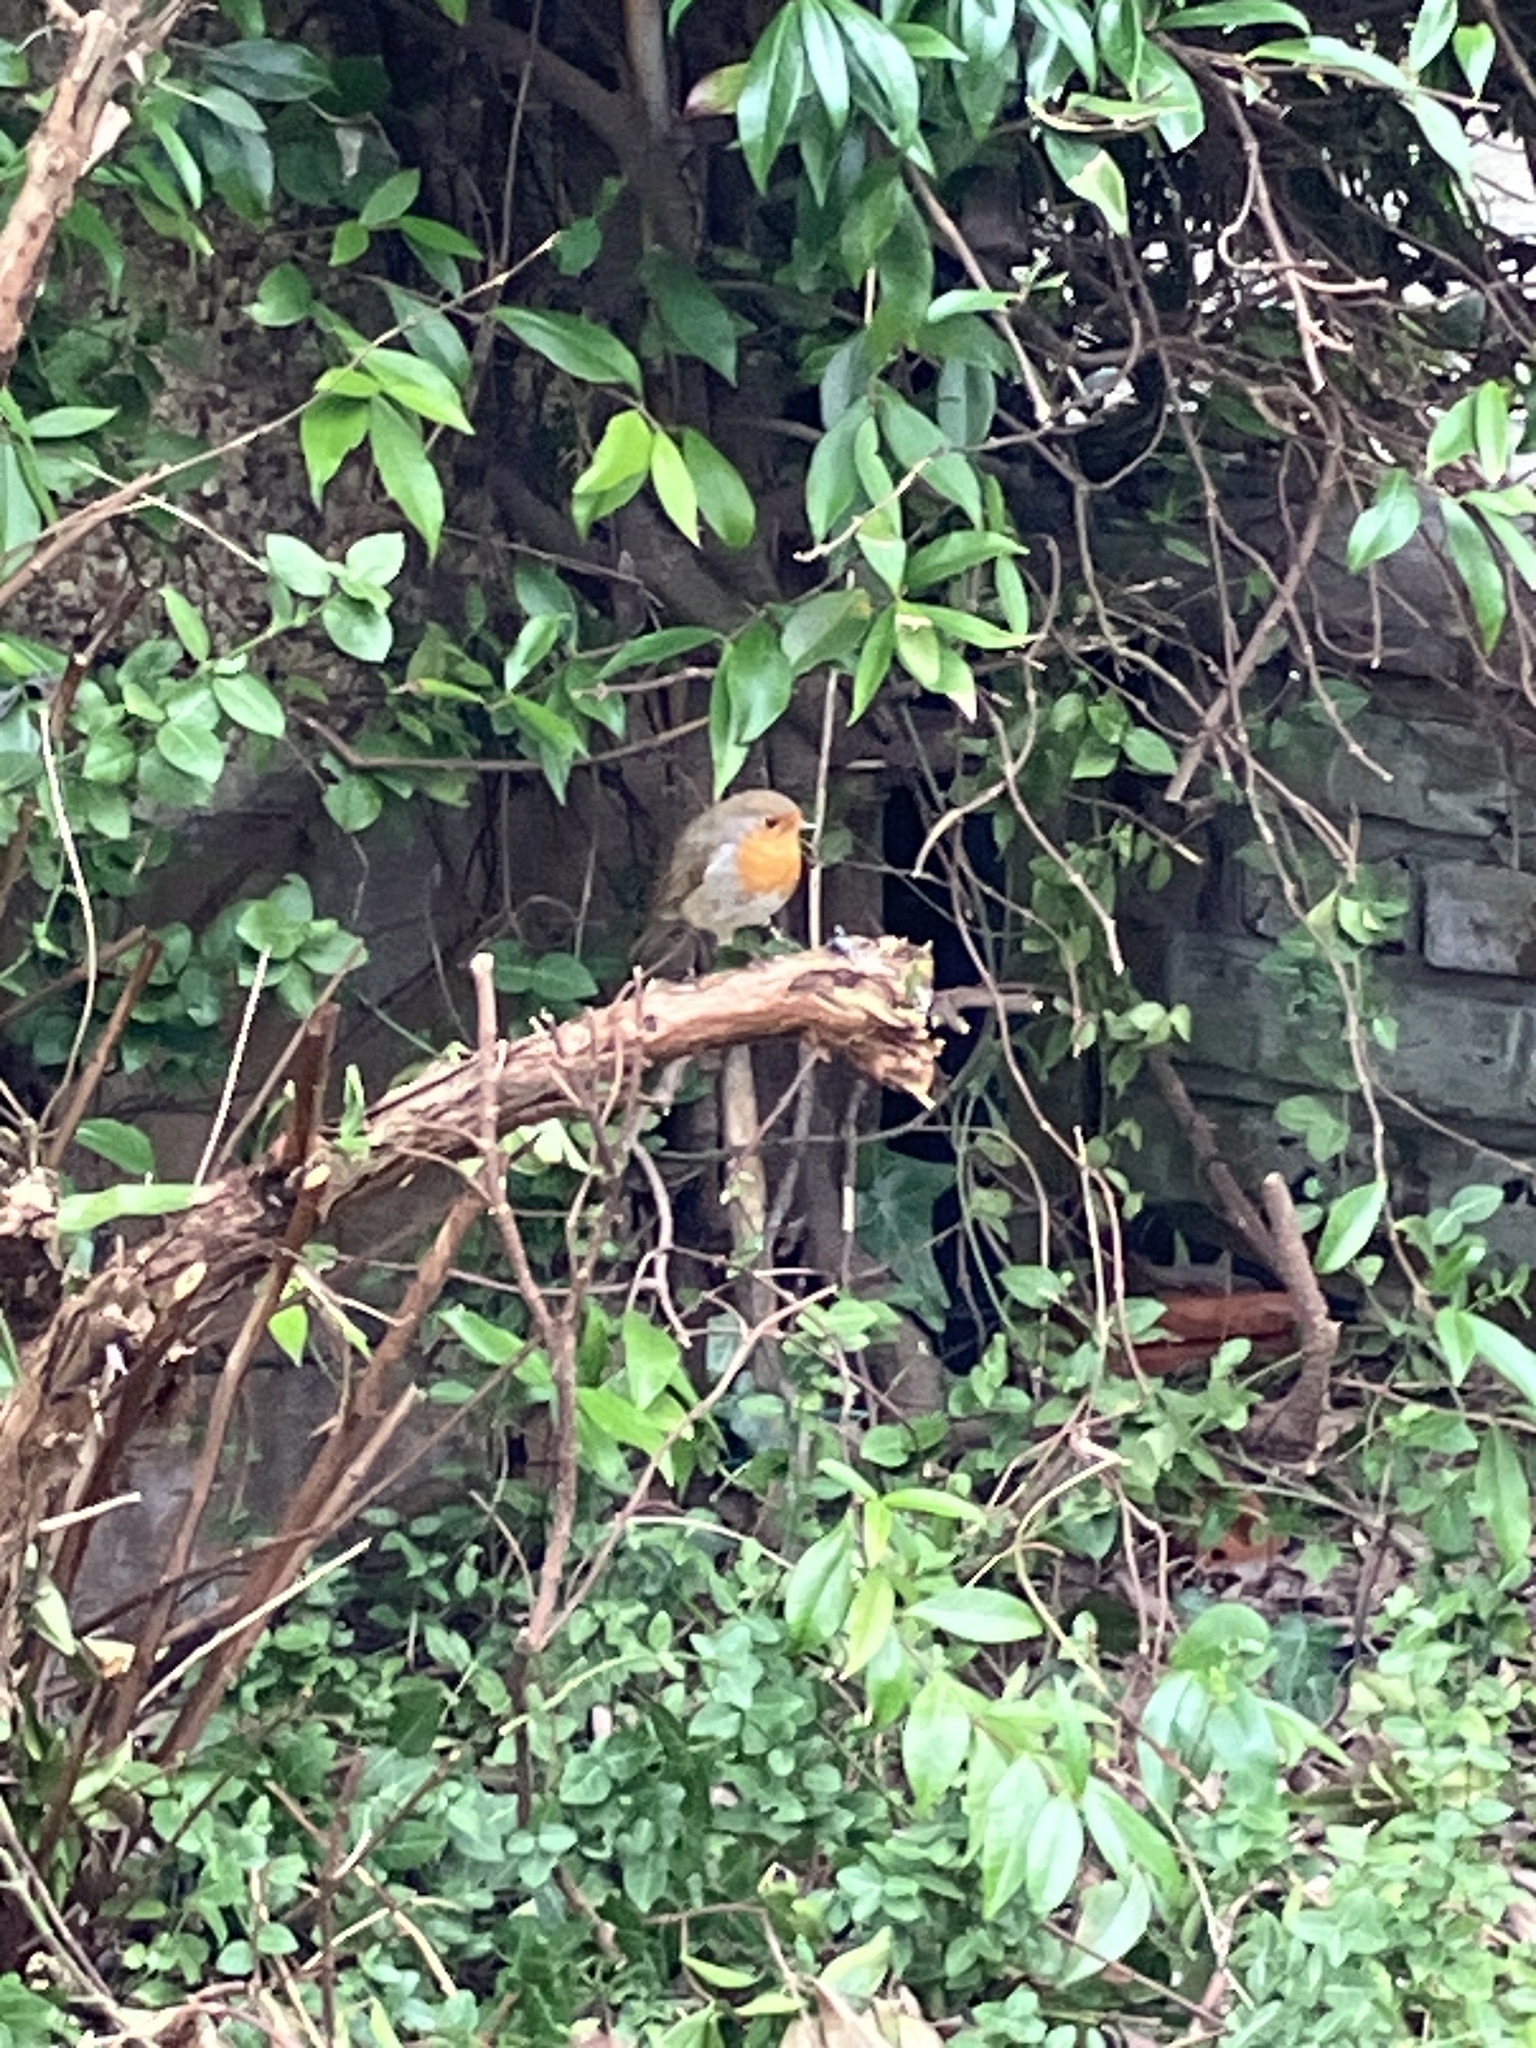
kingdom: Animalia
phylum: Chordata
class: Aves
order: Passeriformes
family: Muscicapidae
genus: Erithacus
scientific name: Erithacus rubecula
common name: European robin
